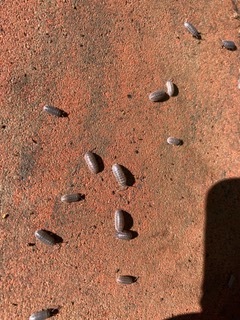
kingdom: Animalia
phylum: Arthropoda
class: Malacostraca
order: Isopoda
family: Armadillidiidae
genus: Armadillidium
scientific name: Armadillidium vulgare
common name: Common pill woodlouse
